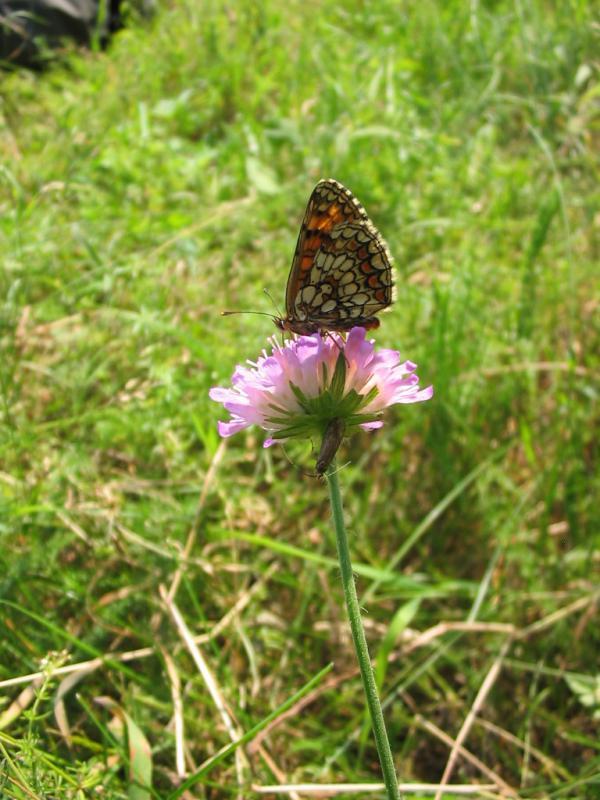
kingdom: Animalia
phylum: Arthropoda
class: Insecta
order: Lepidoptera
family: Nymphalidae
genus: Melitaea
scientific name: Melitaea athalia
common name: Heath fritillary
